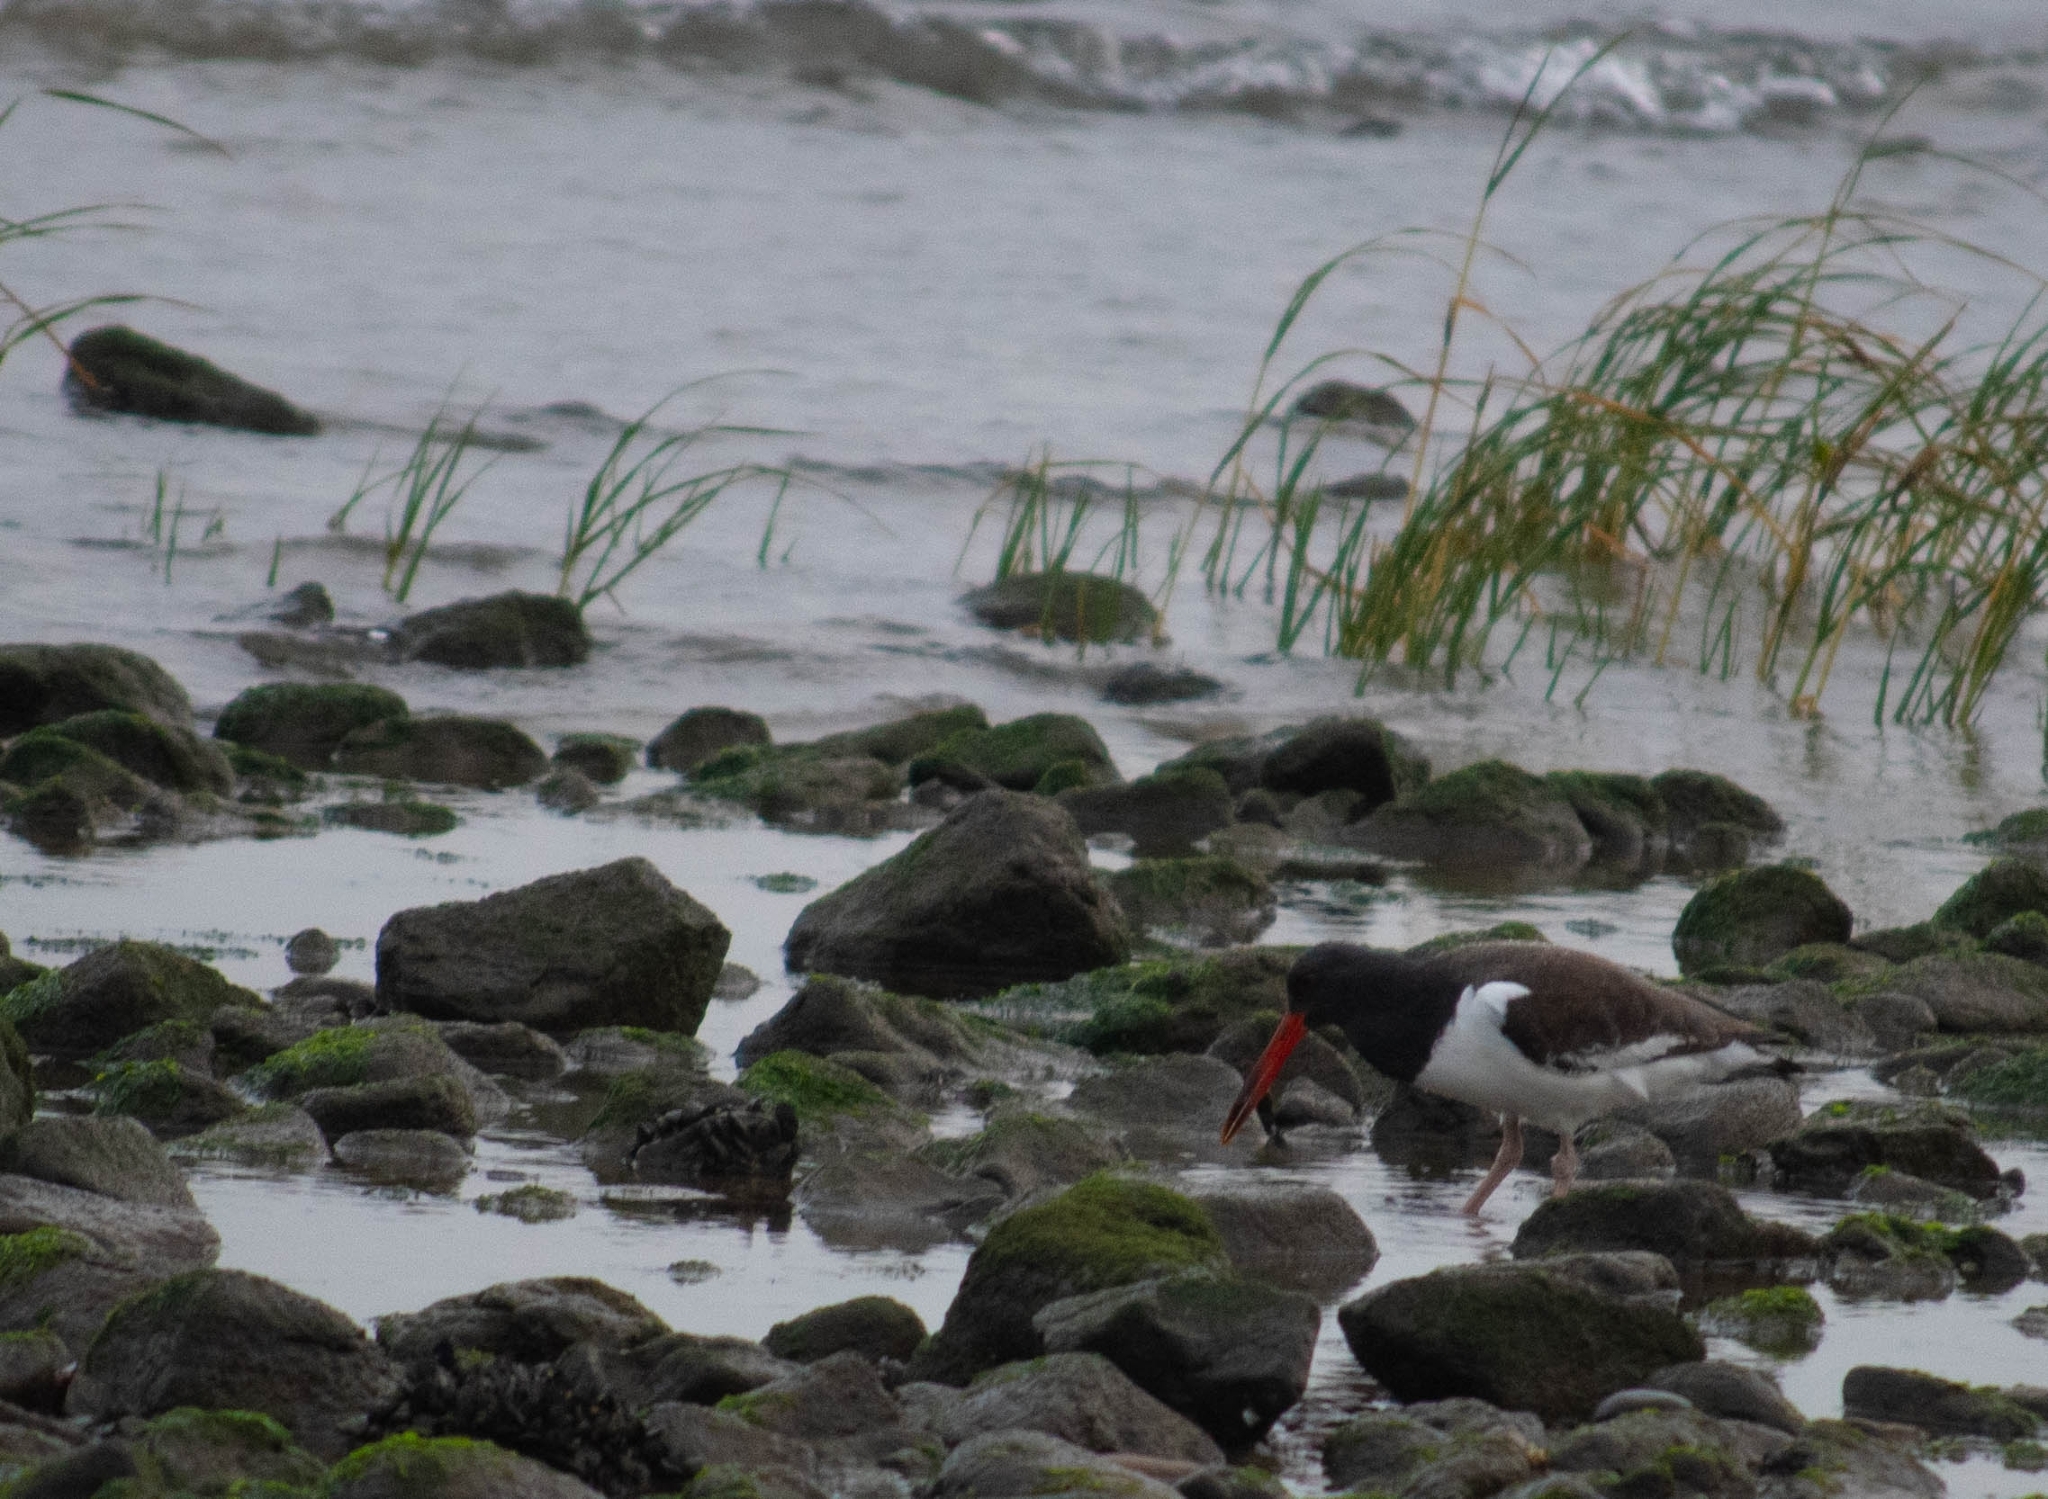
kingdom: Animalia
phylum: Chordata
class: Aves
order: Charadriiformes
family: Haematopodidae
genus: Haematopus
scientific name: Haematopus palliatus
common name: American oystercatcher
